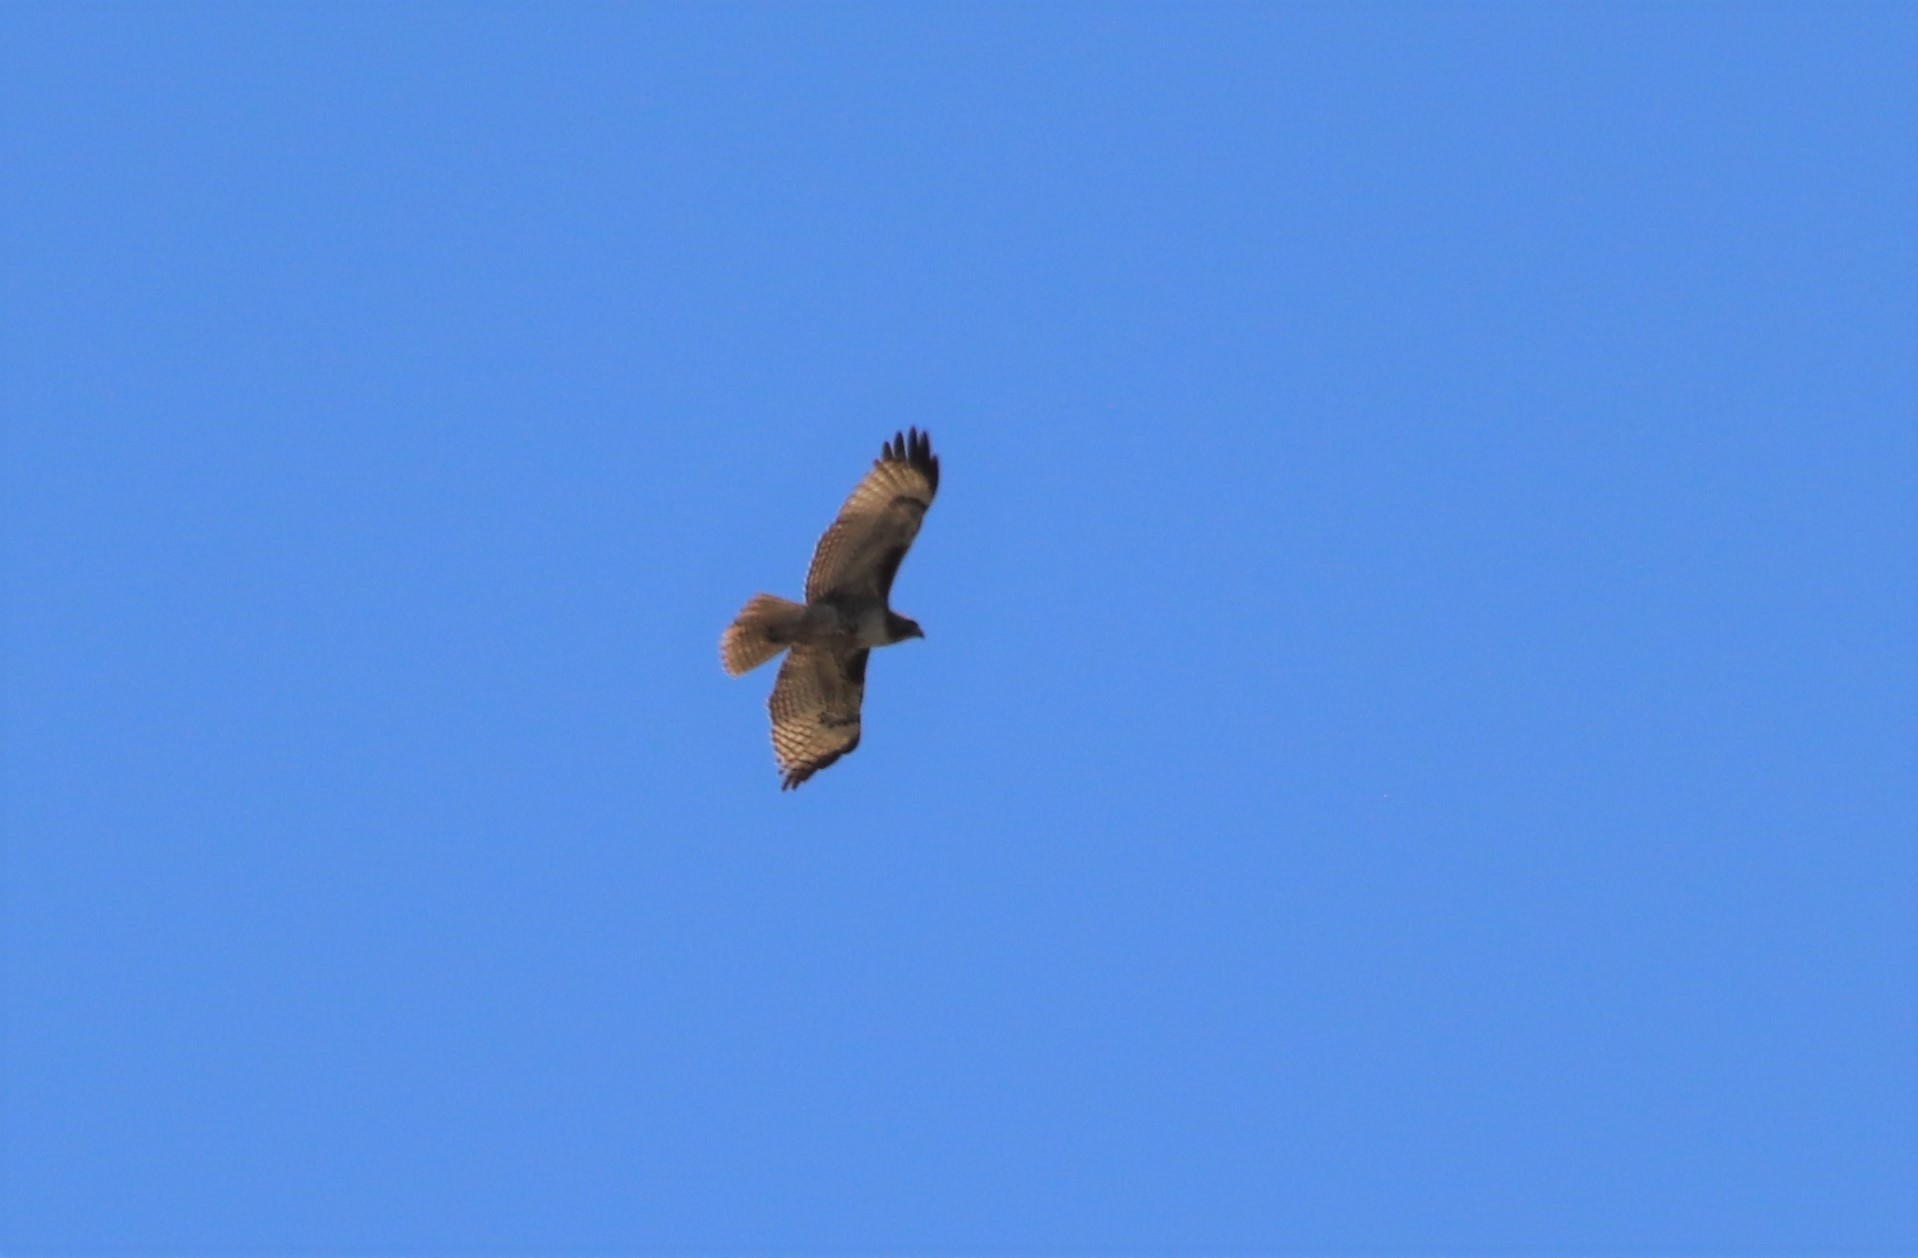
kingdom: Animalia
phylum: Chordata
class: Aves
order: Accipitriformes
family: Accipitridae
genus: Buteo
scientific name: Buteo jamaicensis
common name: Red-tailed hawk
